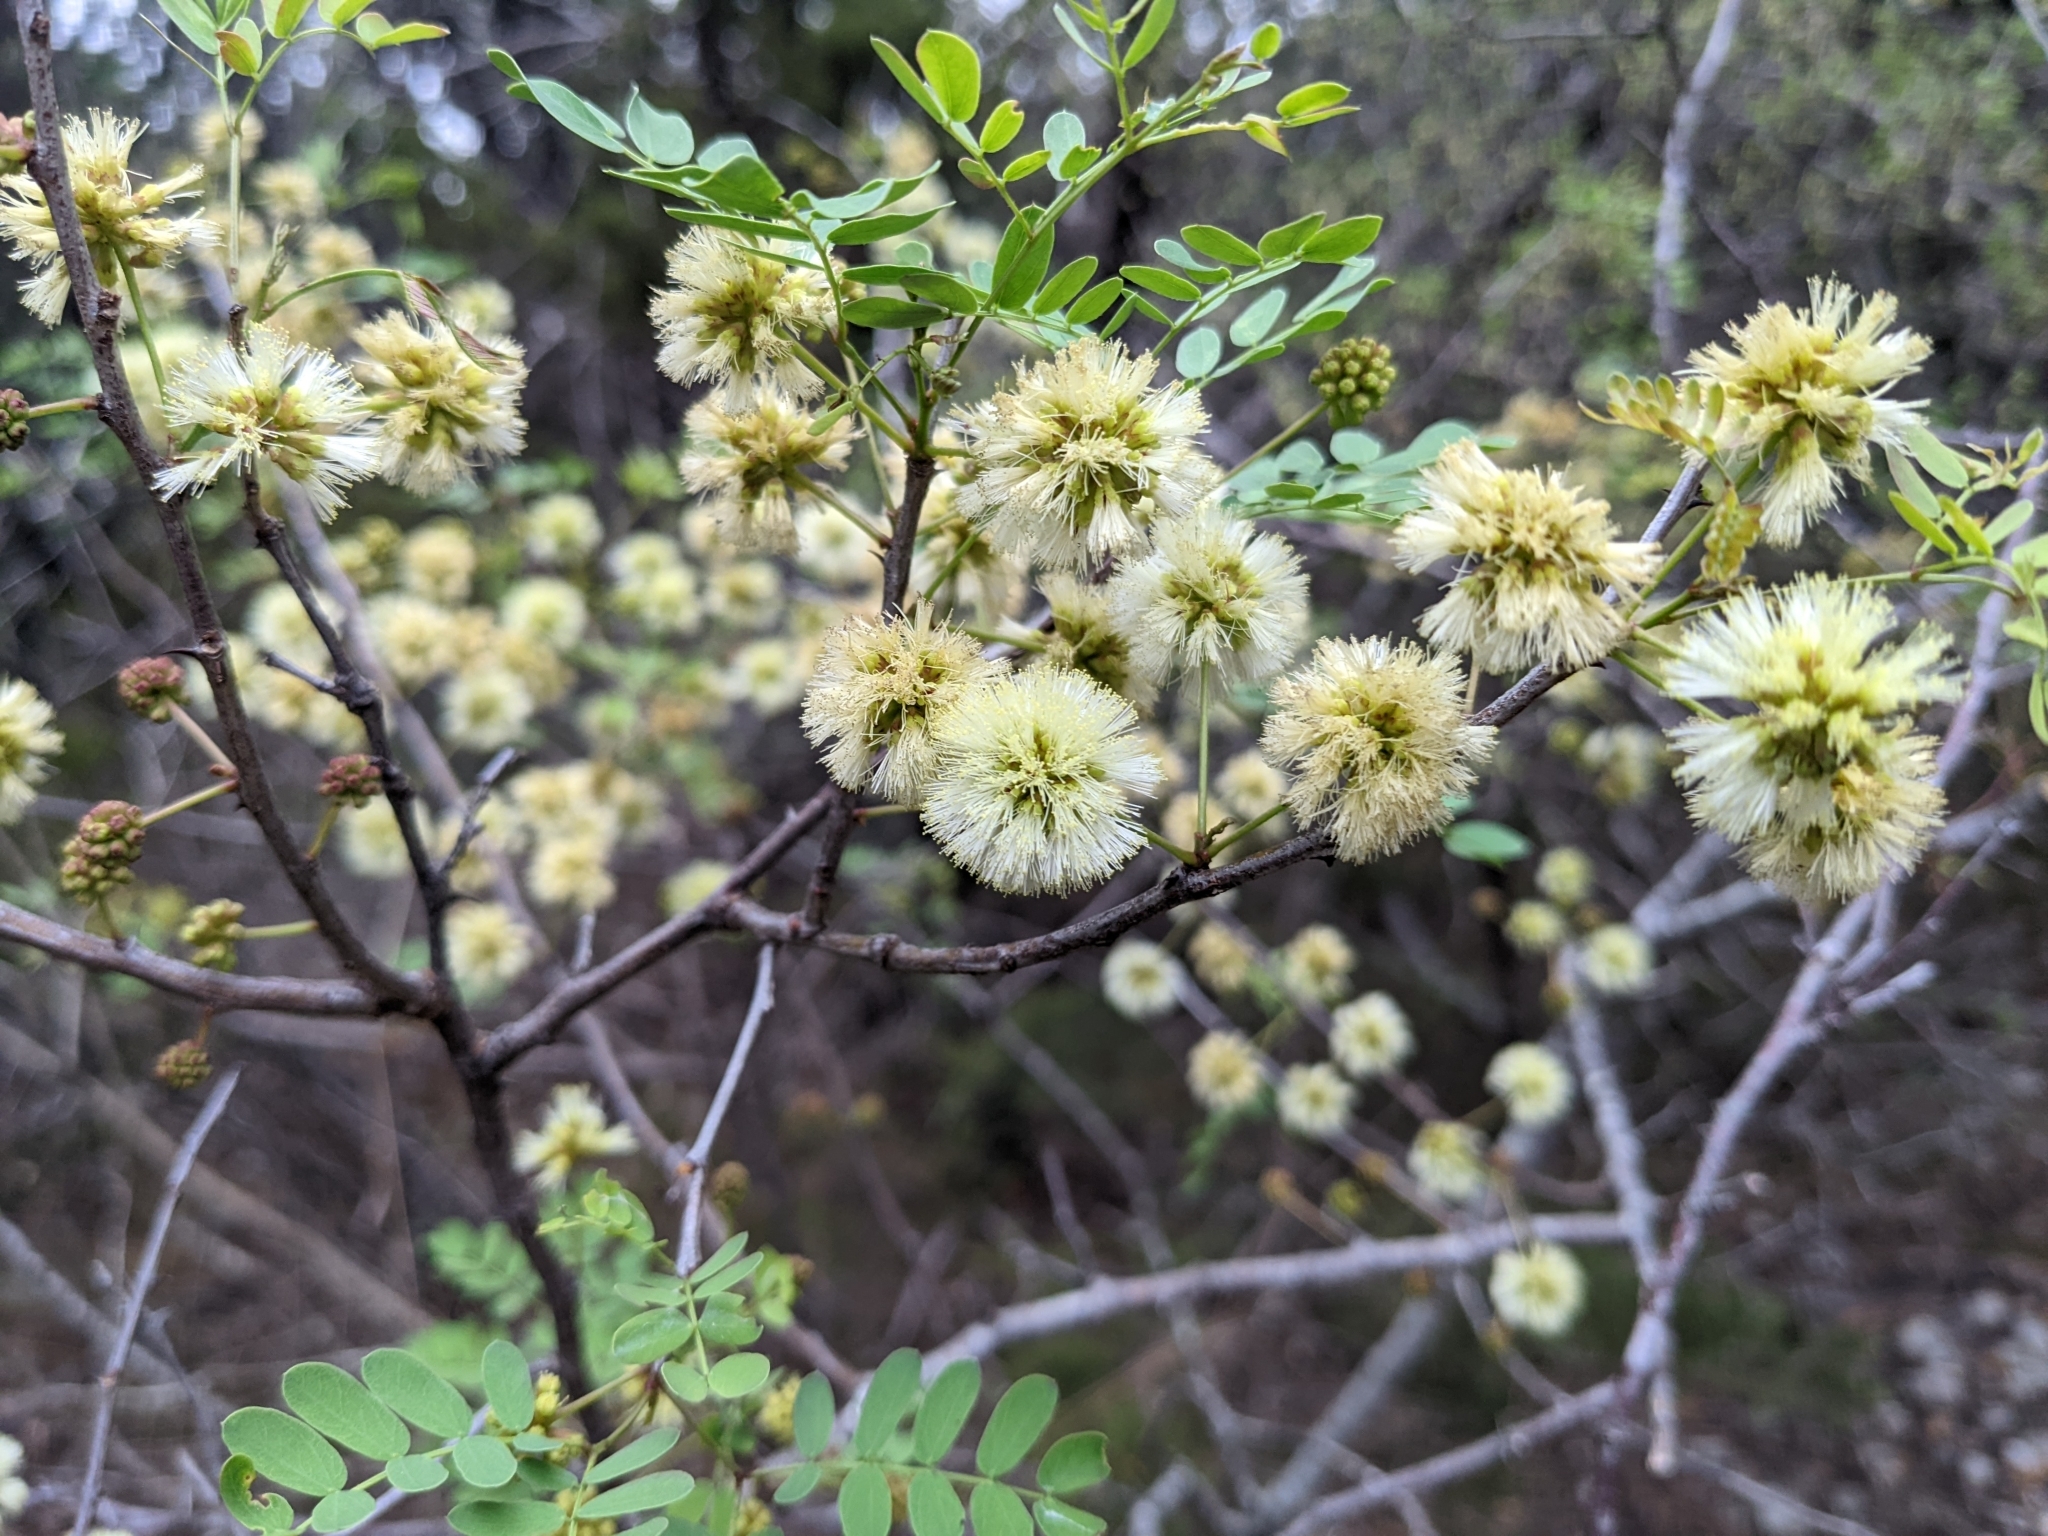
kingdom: Plantae
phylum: Tracheophyta
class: Magnoliopsida
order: Fabales
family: Fabaceae
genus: Senegalia
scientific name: Senegalia roemeriana
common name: Roemer's acacia
